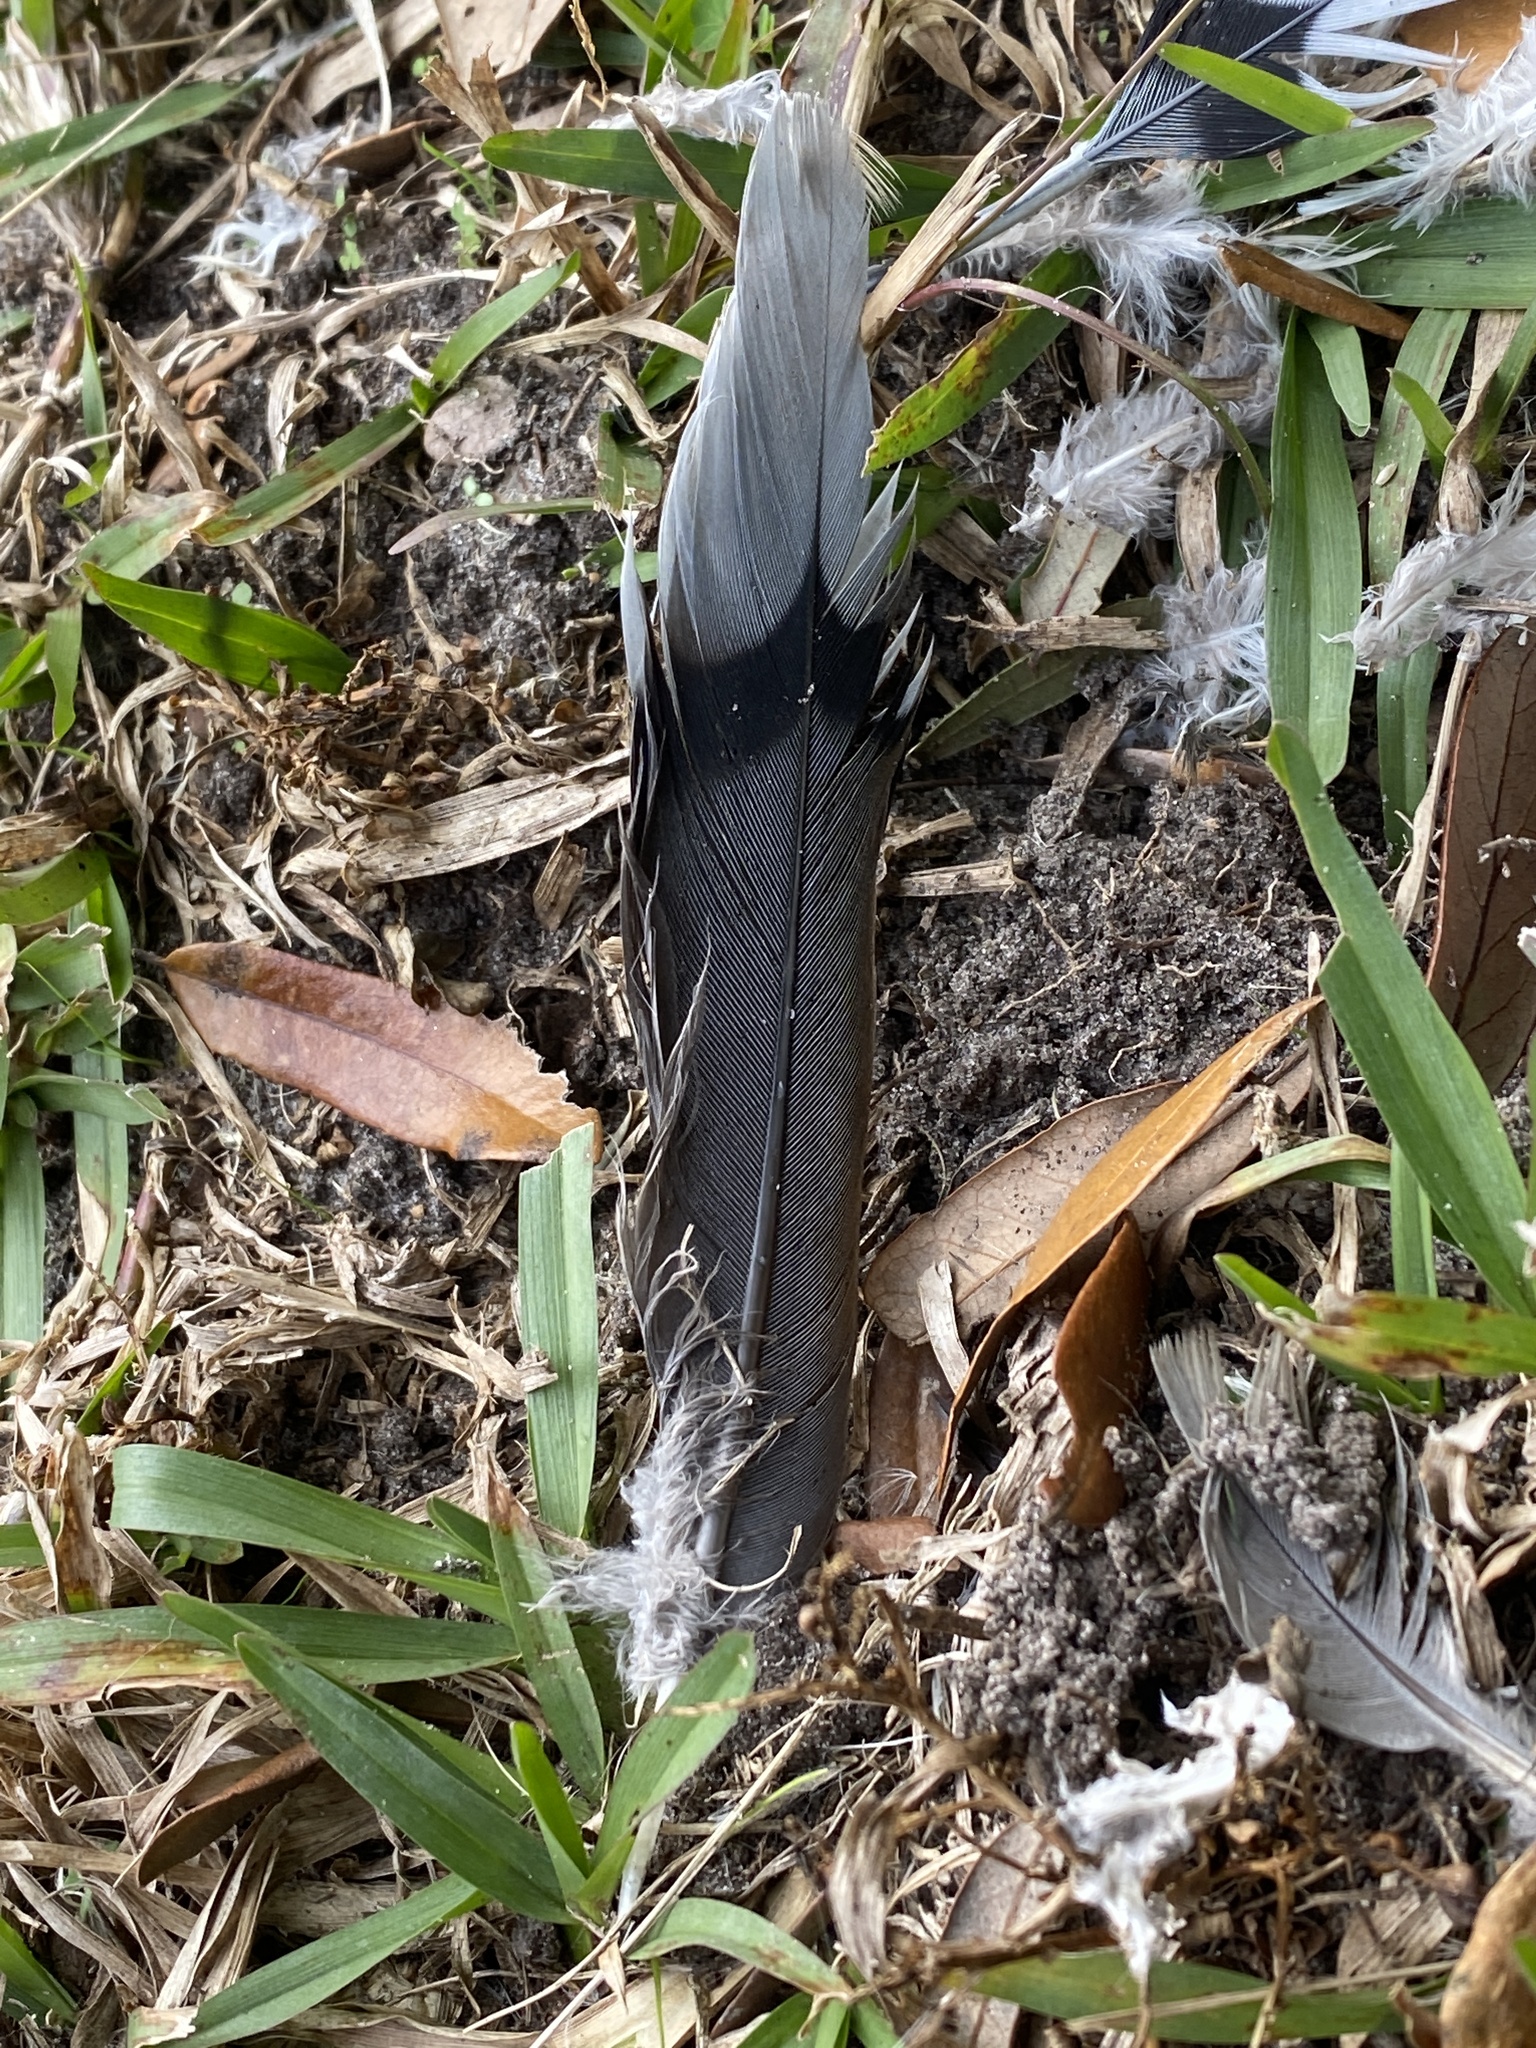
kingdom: Animalia
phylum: Chordata
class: Aves
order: Columbiformes
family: Columbidae
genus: Zenaida
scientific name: Zenaida macroura
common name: Mourning dove
